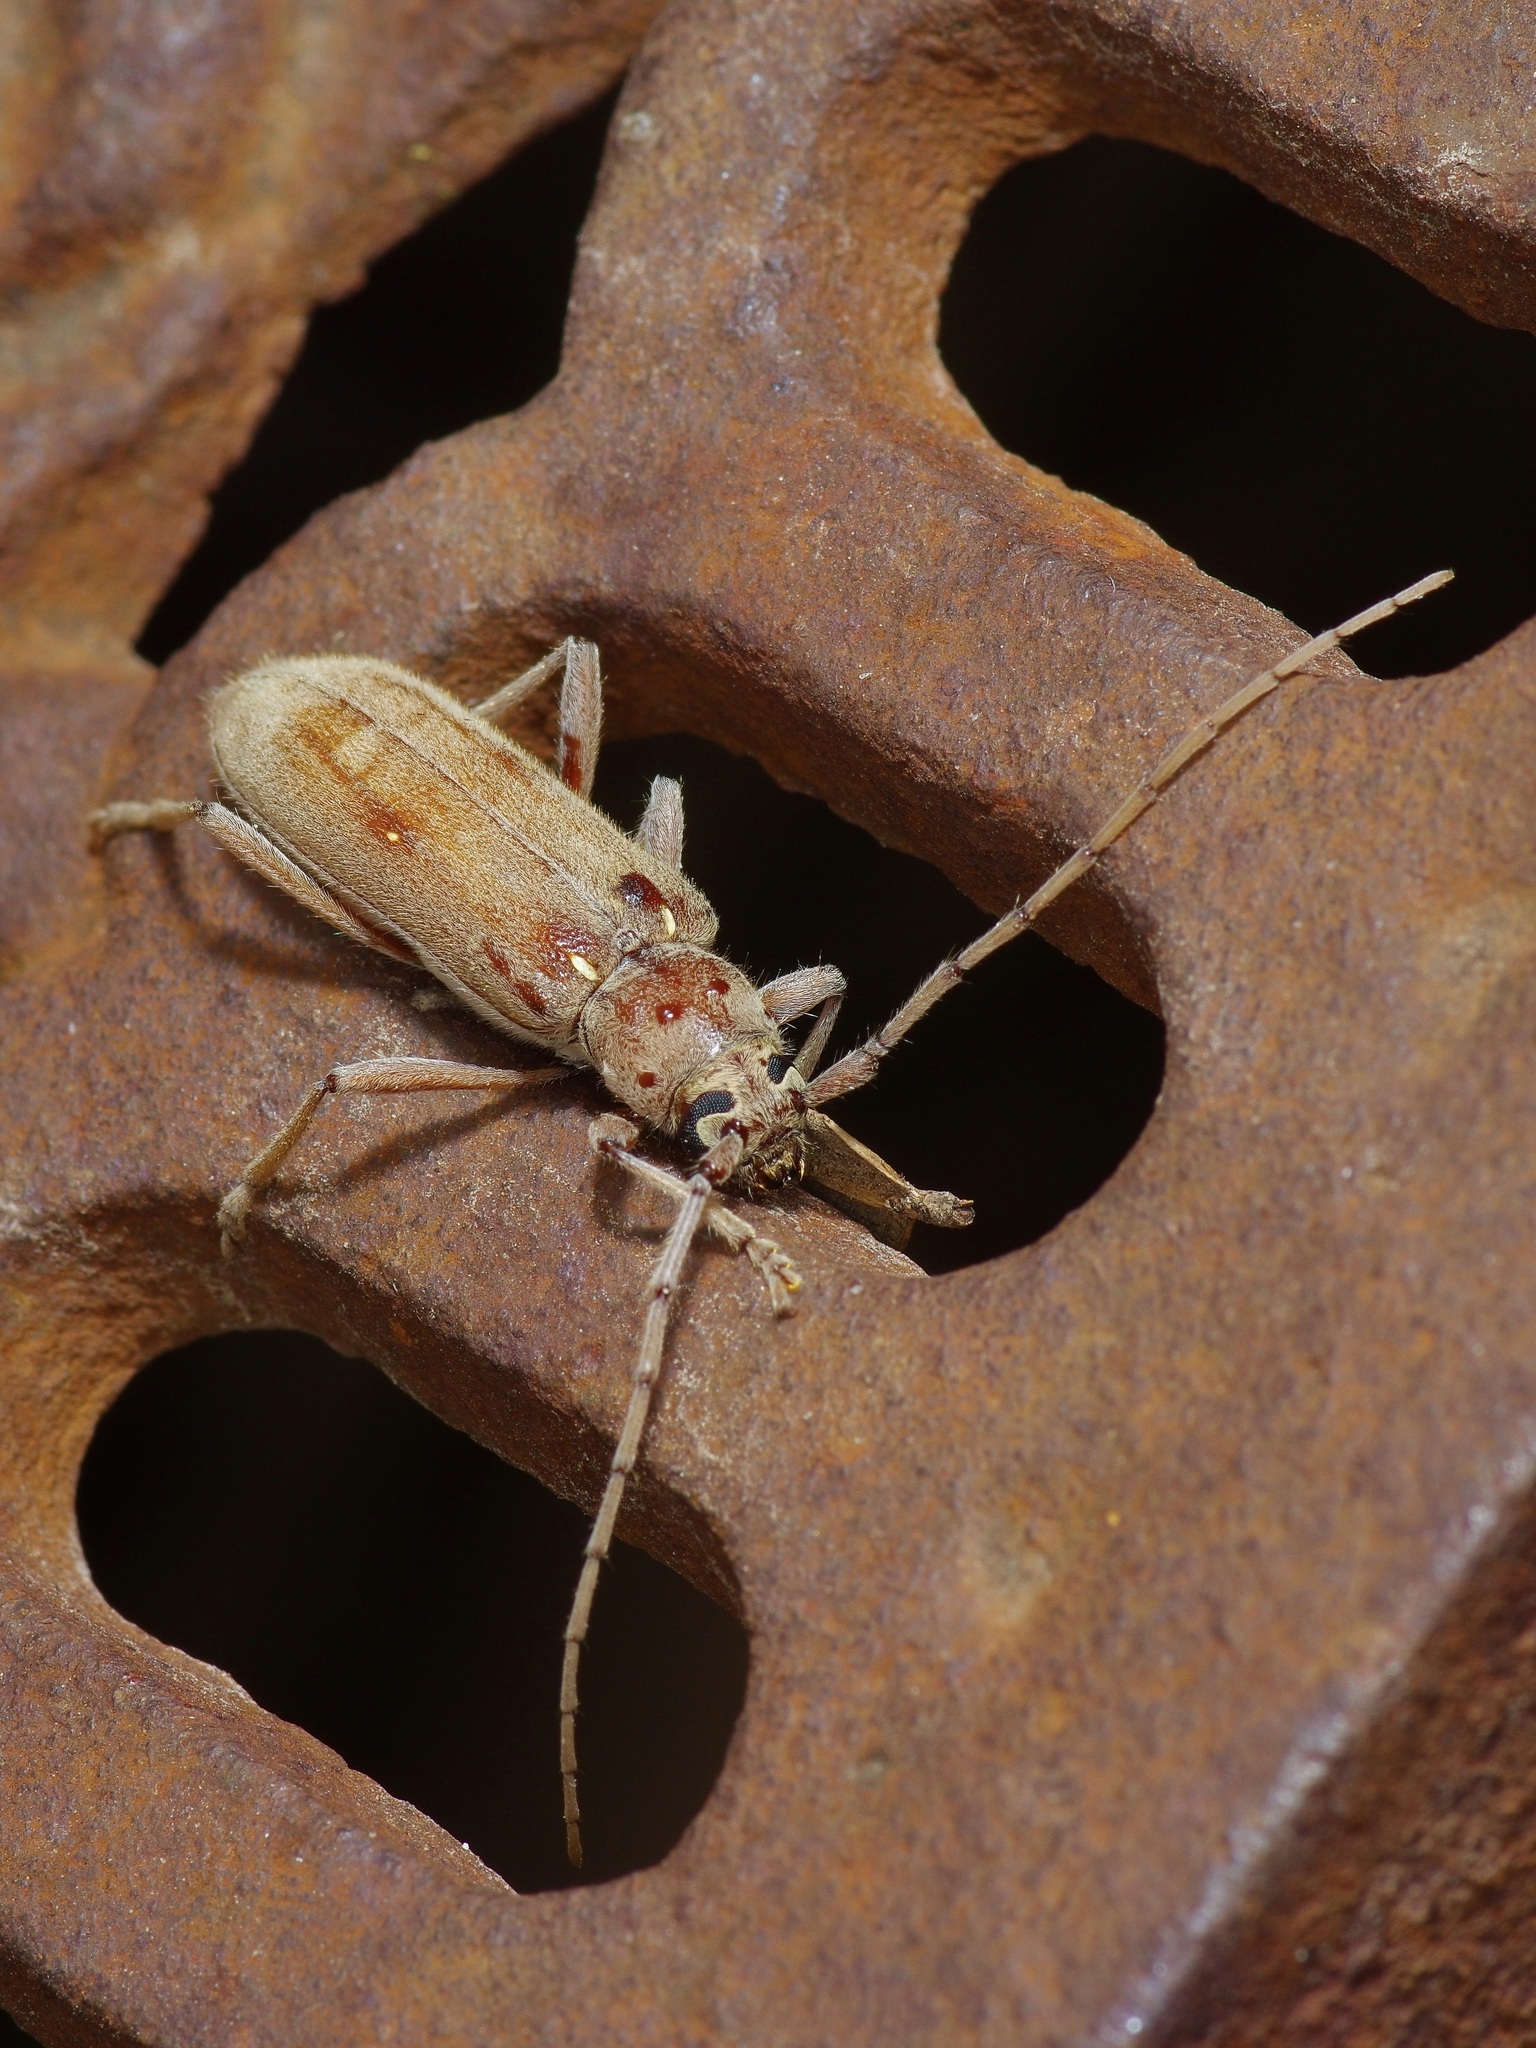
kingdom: Animalia
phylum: Arthropoda
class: Insecta
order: Coleoptera
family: Cerambycidae
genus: Eburia
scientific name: Eburia mutica
